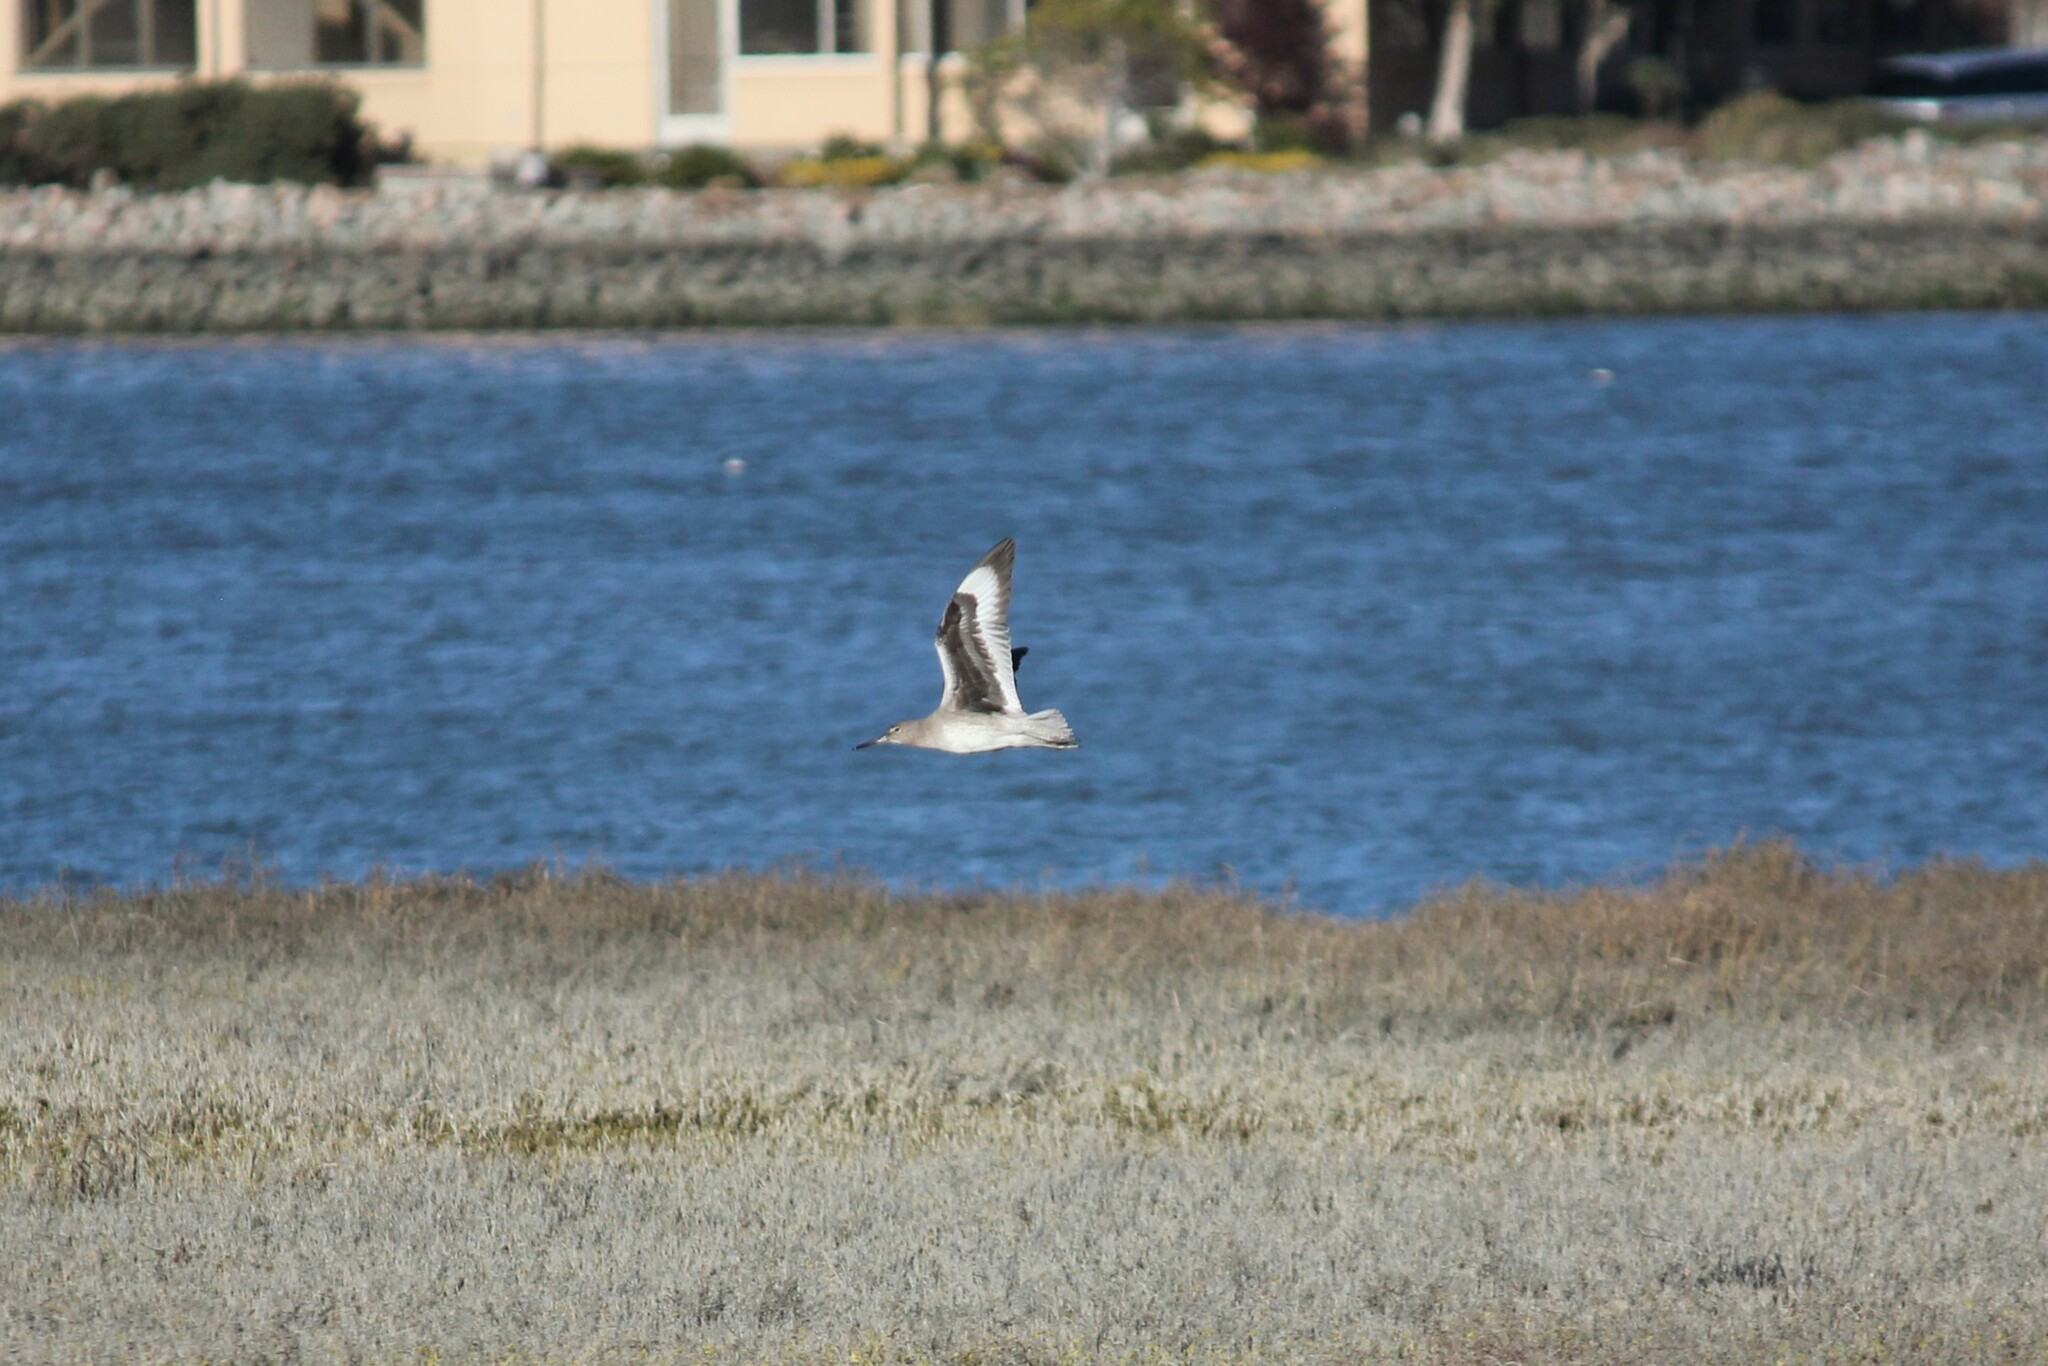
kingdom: Animalia
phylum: Chordata
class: Aves
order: Charadriiformes
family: Scolopacidae
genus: Tringa
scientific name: Tringa semipalmata
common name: Willet
